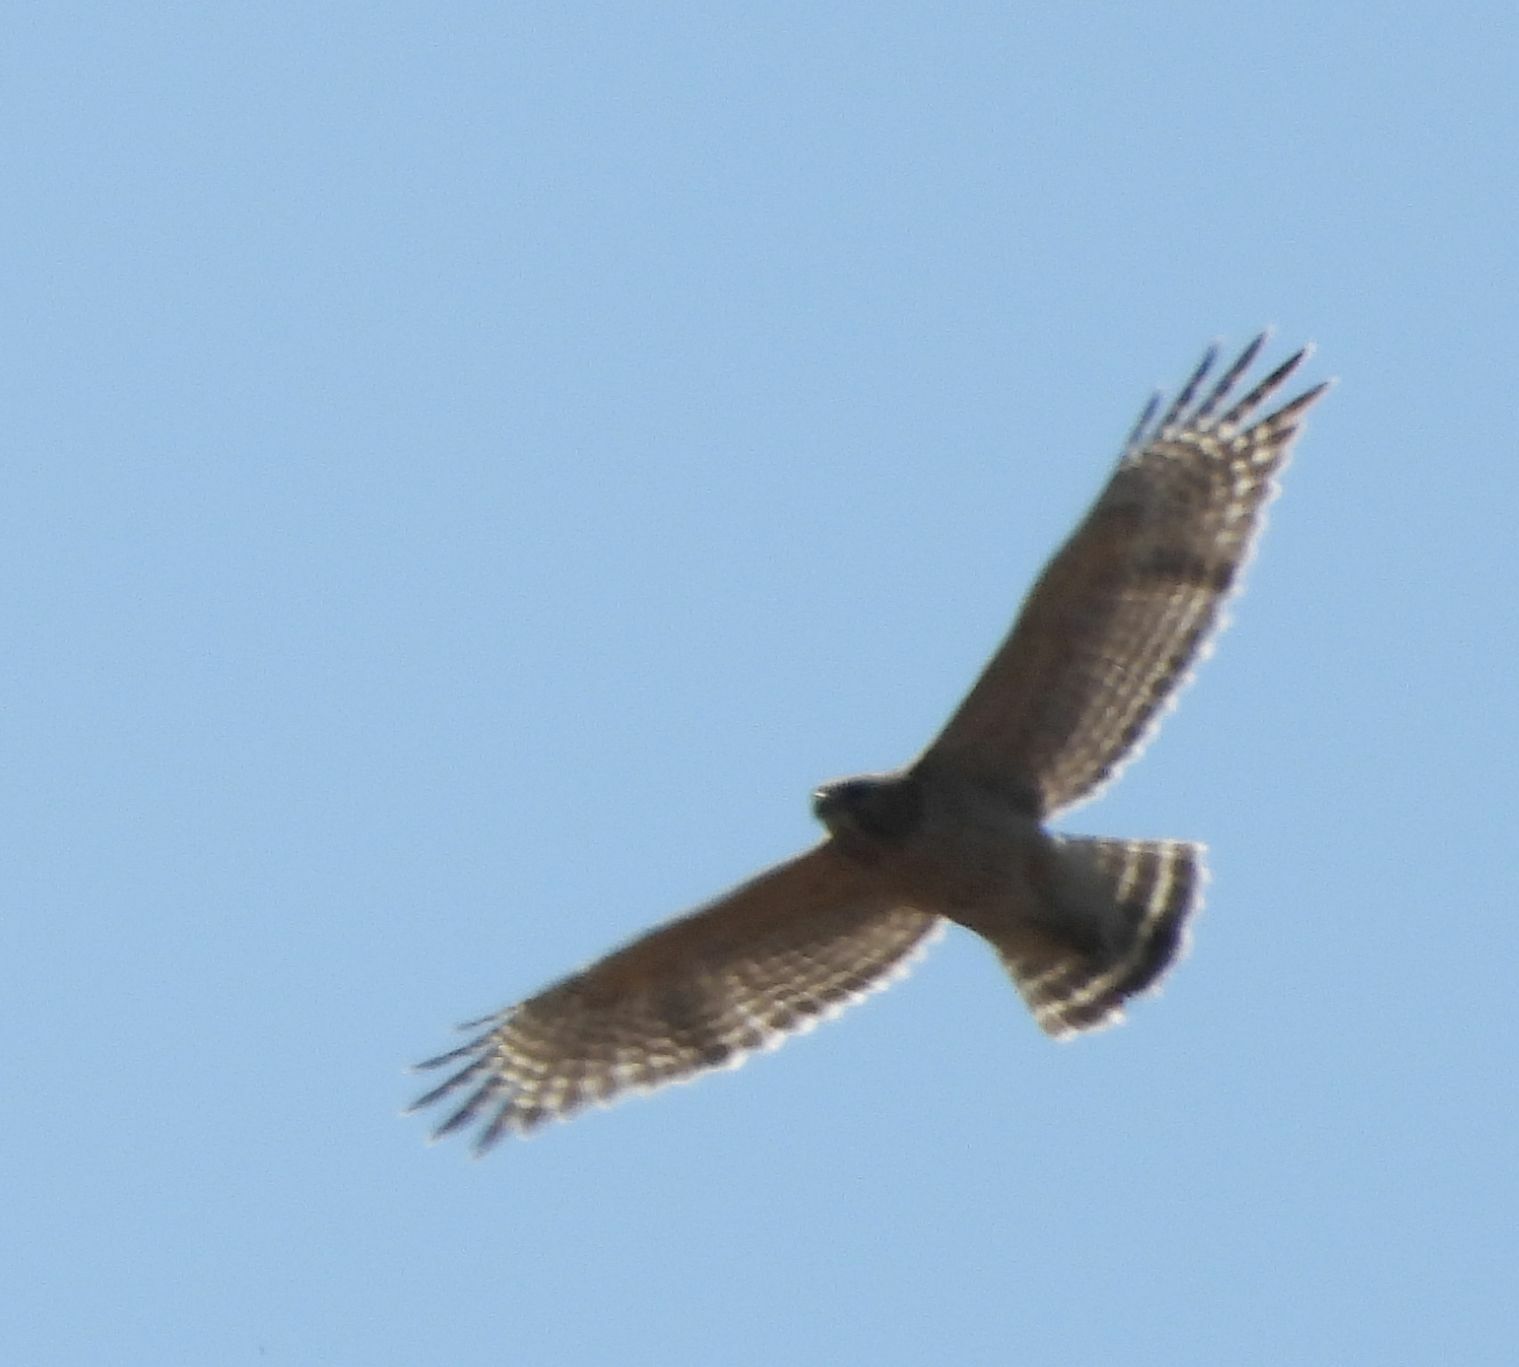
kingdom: Animalia
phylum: Chordata
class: Aves
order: Accipitriformes
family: Accipitridae
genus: Buteo
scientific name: Buteo lineatus
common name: Red-shouldered hawk
